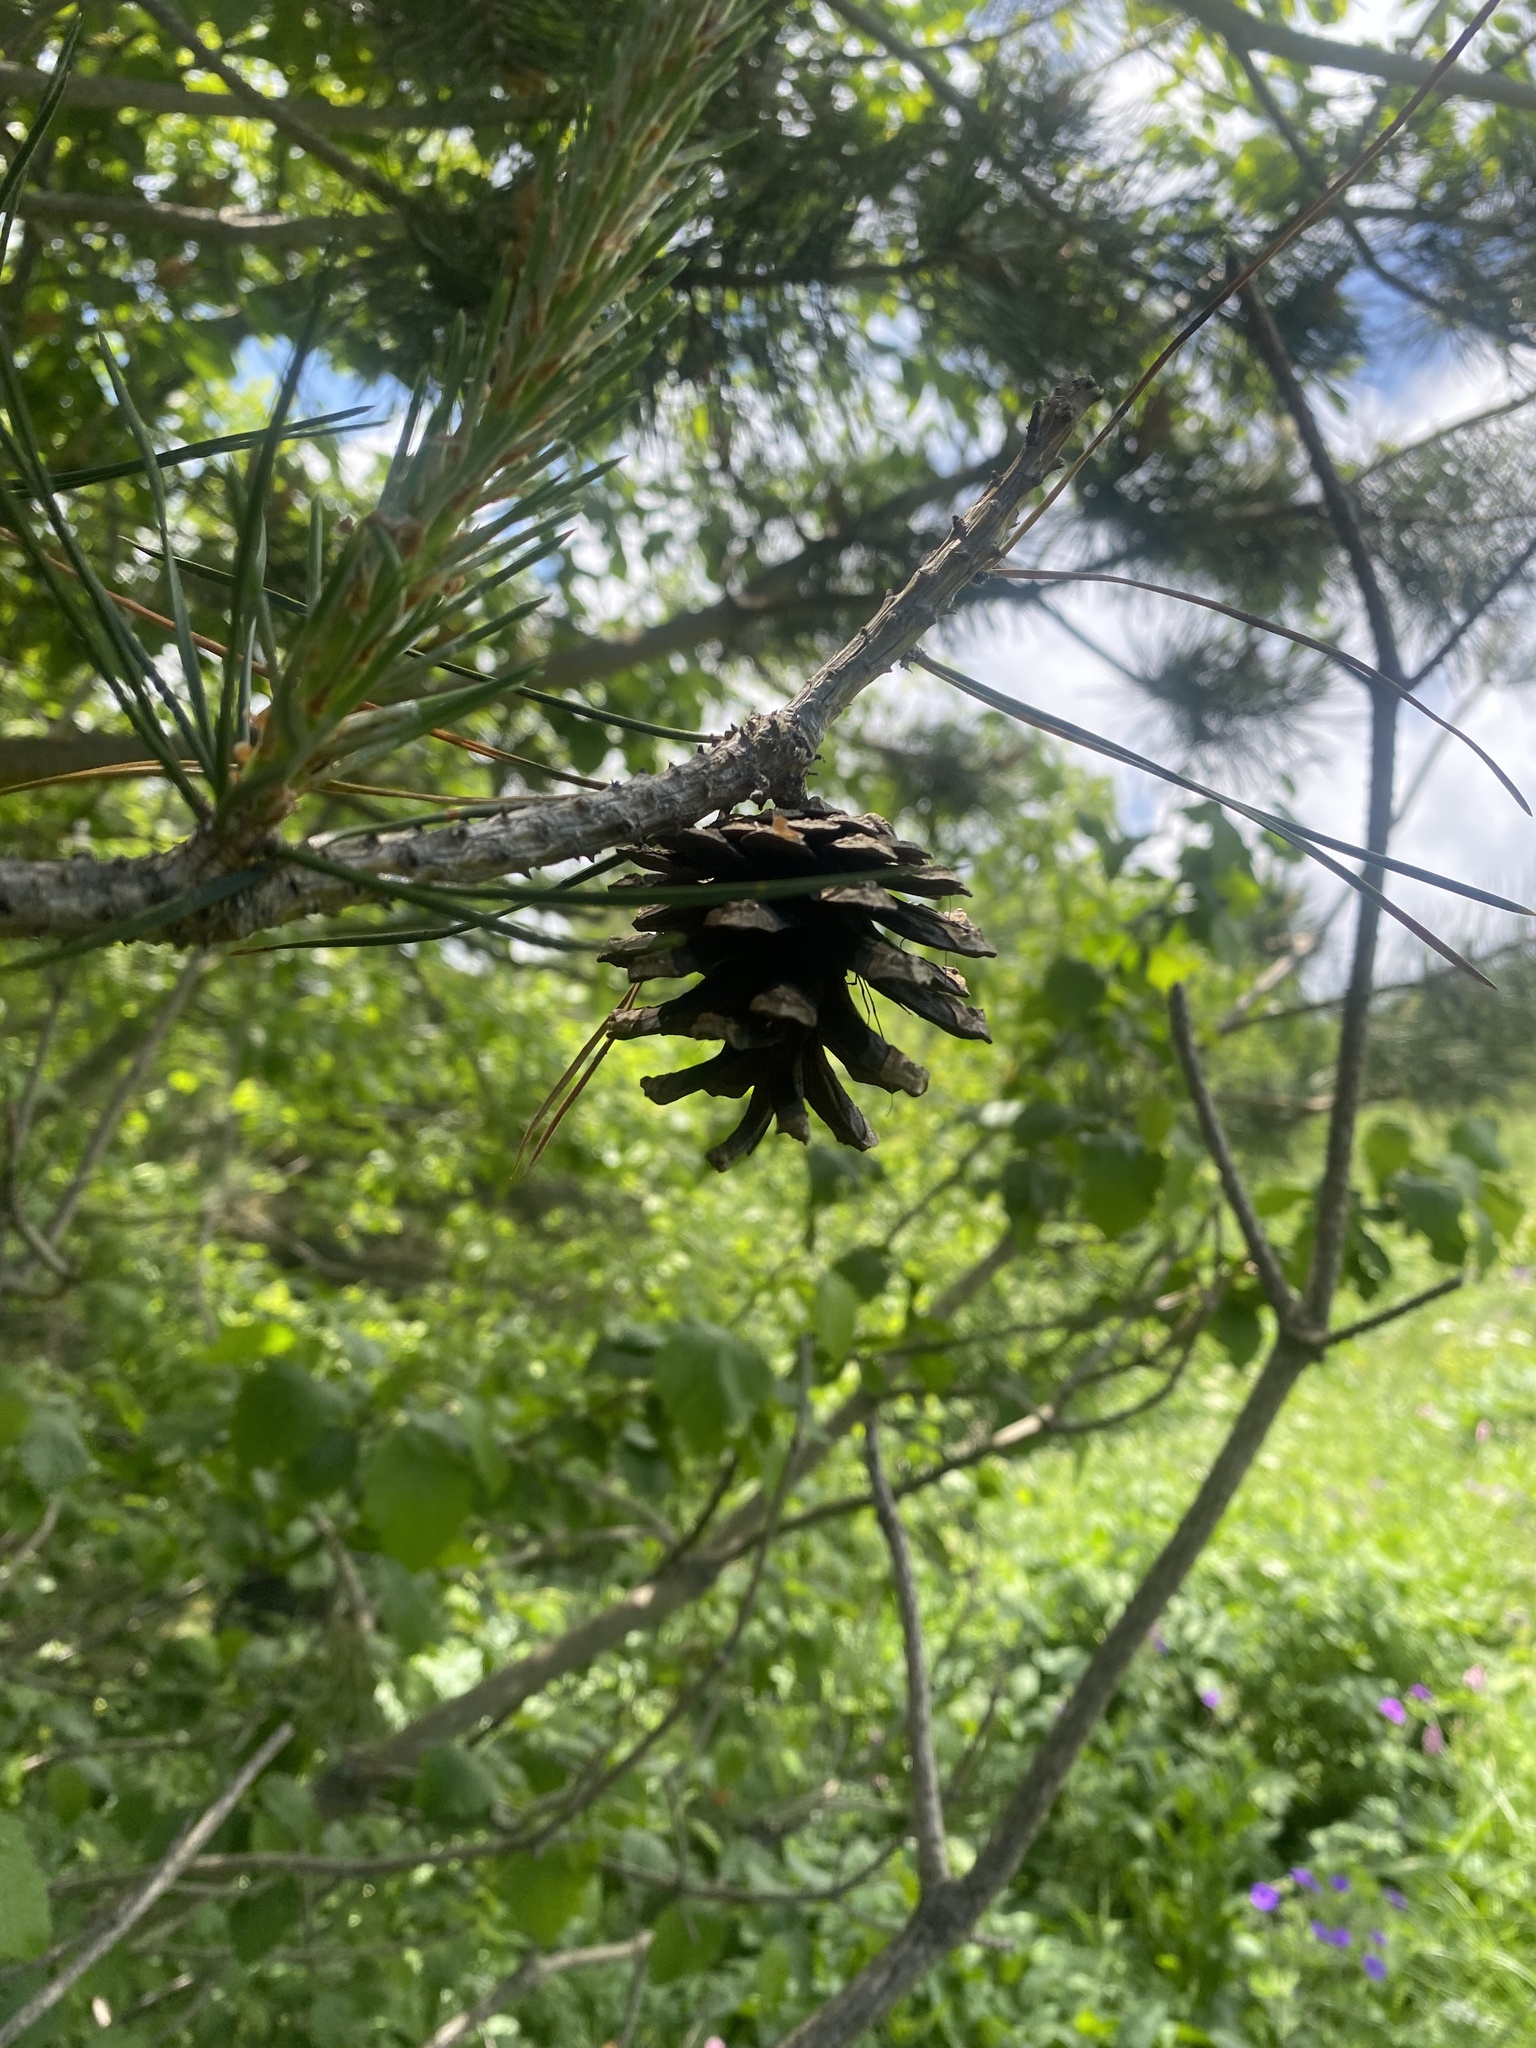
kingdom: Plantae
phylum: Tracheophyta
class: Pinopsida
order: Pinales
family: Pinaceae
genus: Pinus
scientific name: Pinus sylvestris
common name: Scots pine
